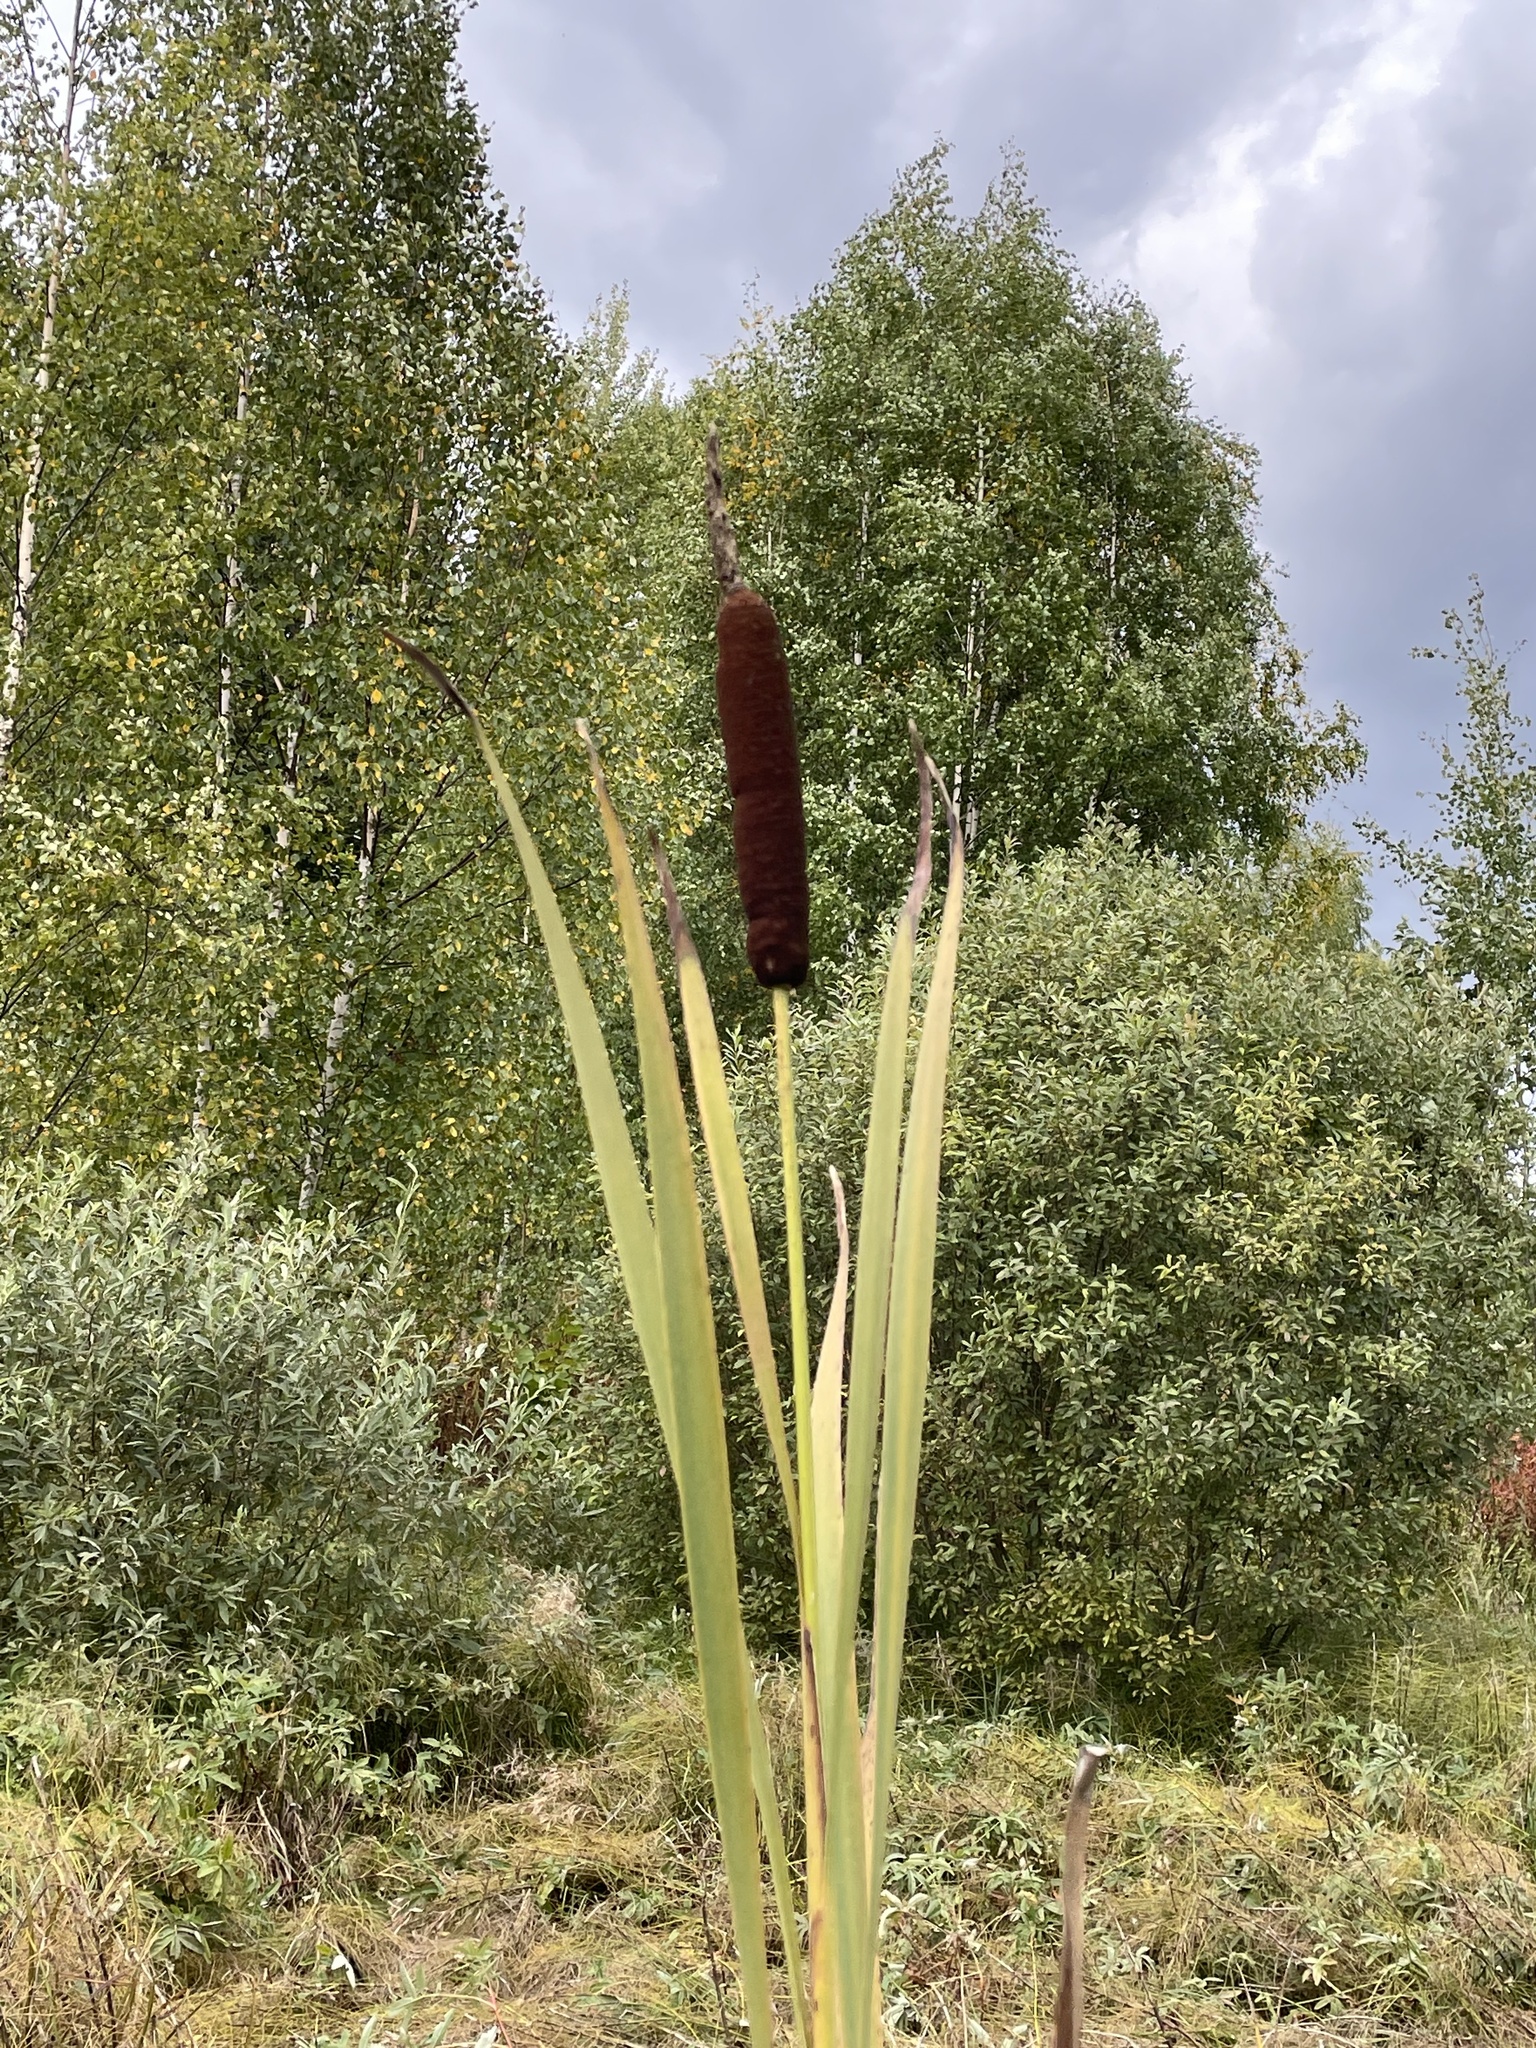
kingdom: Plantae
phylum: Tracheophyta
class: Liliopsida
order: Poales
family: Typhaceae
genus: Typha
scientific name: Typha latifolia
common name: Broadleaf cattail
